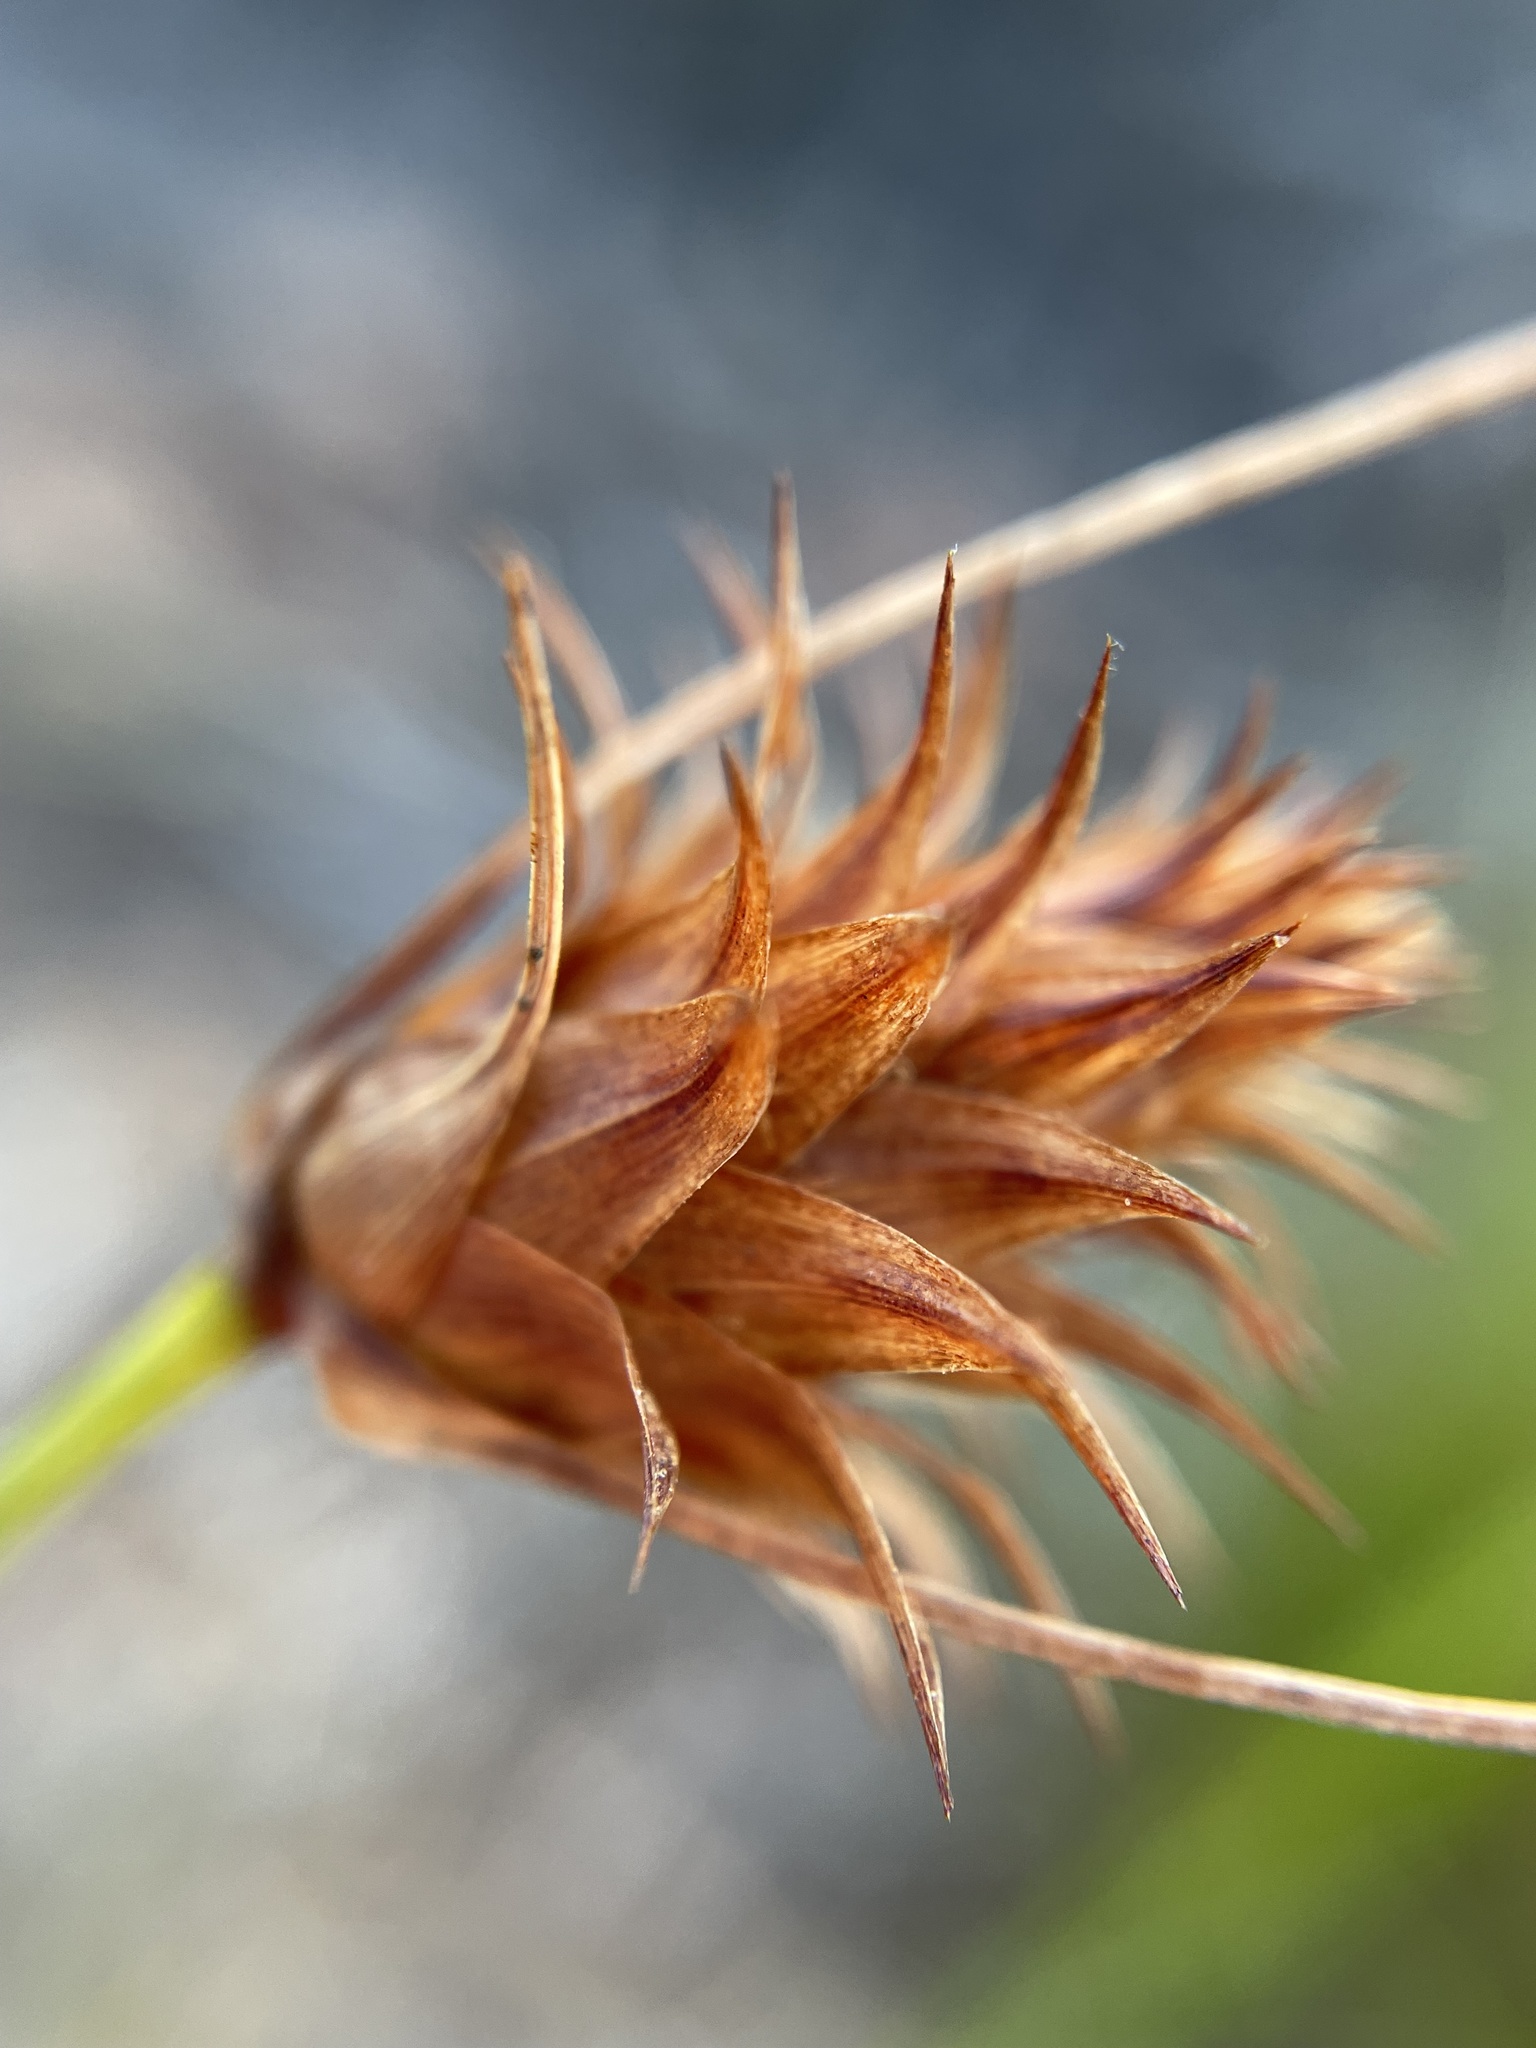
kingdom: Plantae
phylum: Tracheophyta
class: Liliopsida
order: Poales
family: Cyperaceae
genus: Ficinia
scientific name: Ficinia nigrescens
